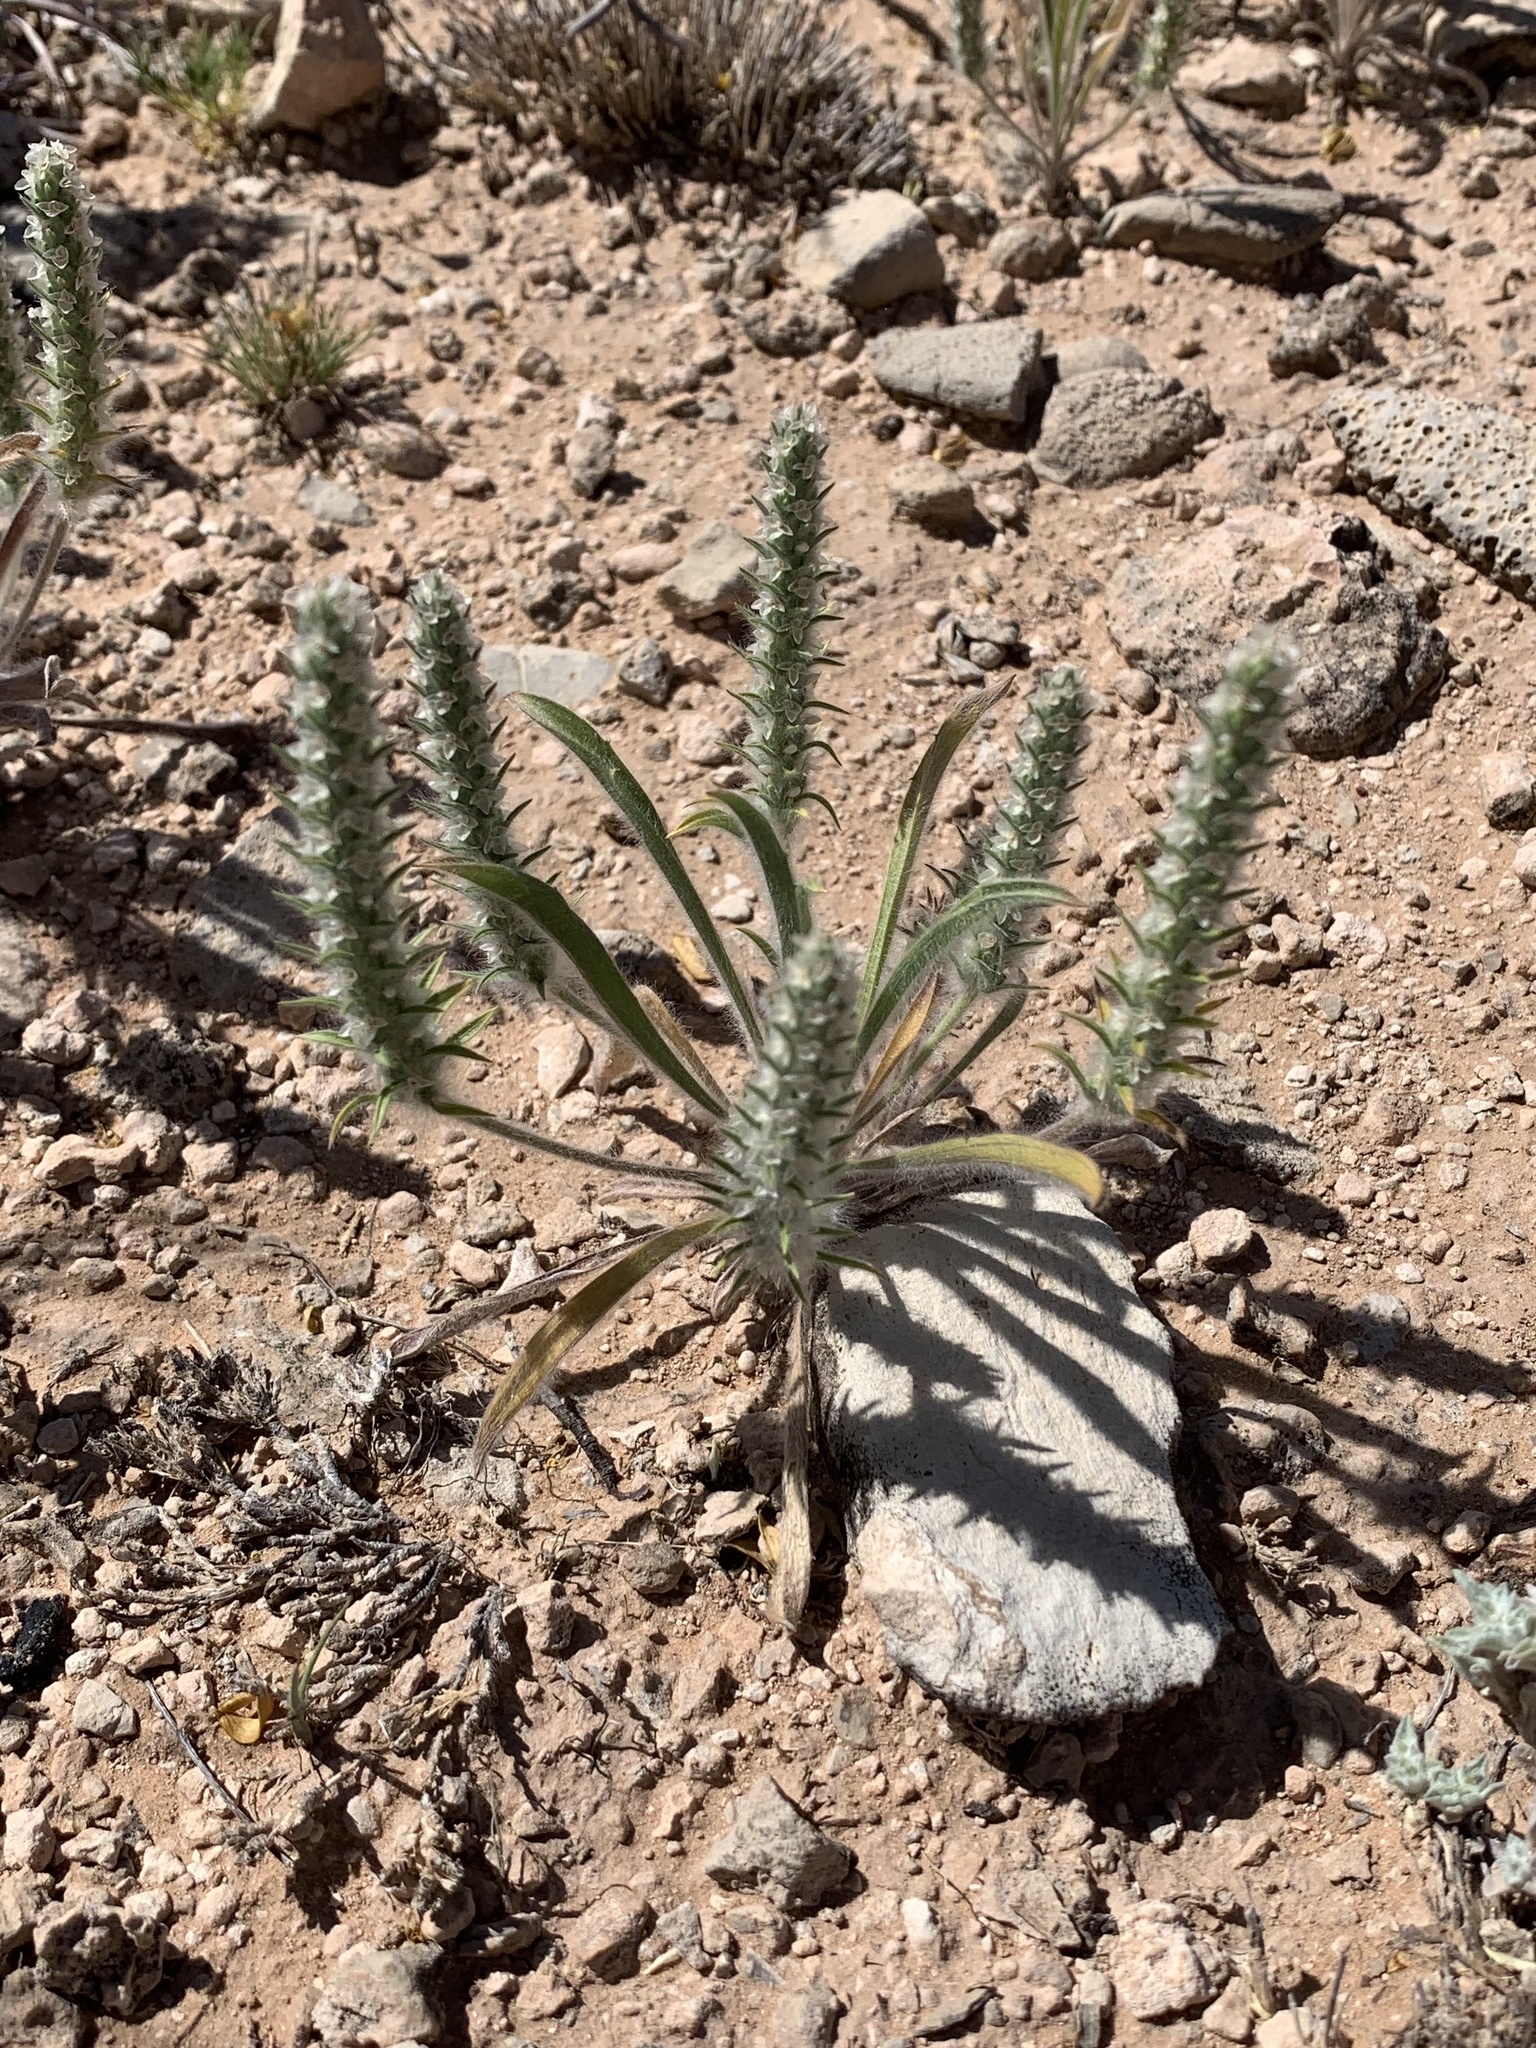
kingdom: Plantae
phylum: Tracheophyta
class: Magnoliopsida
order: Lamiales
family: Plantaginaceae
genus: Plantago
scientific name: Plantago patagonica
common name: Patagonia indian-wheat
